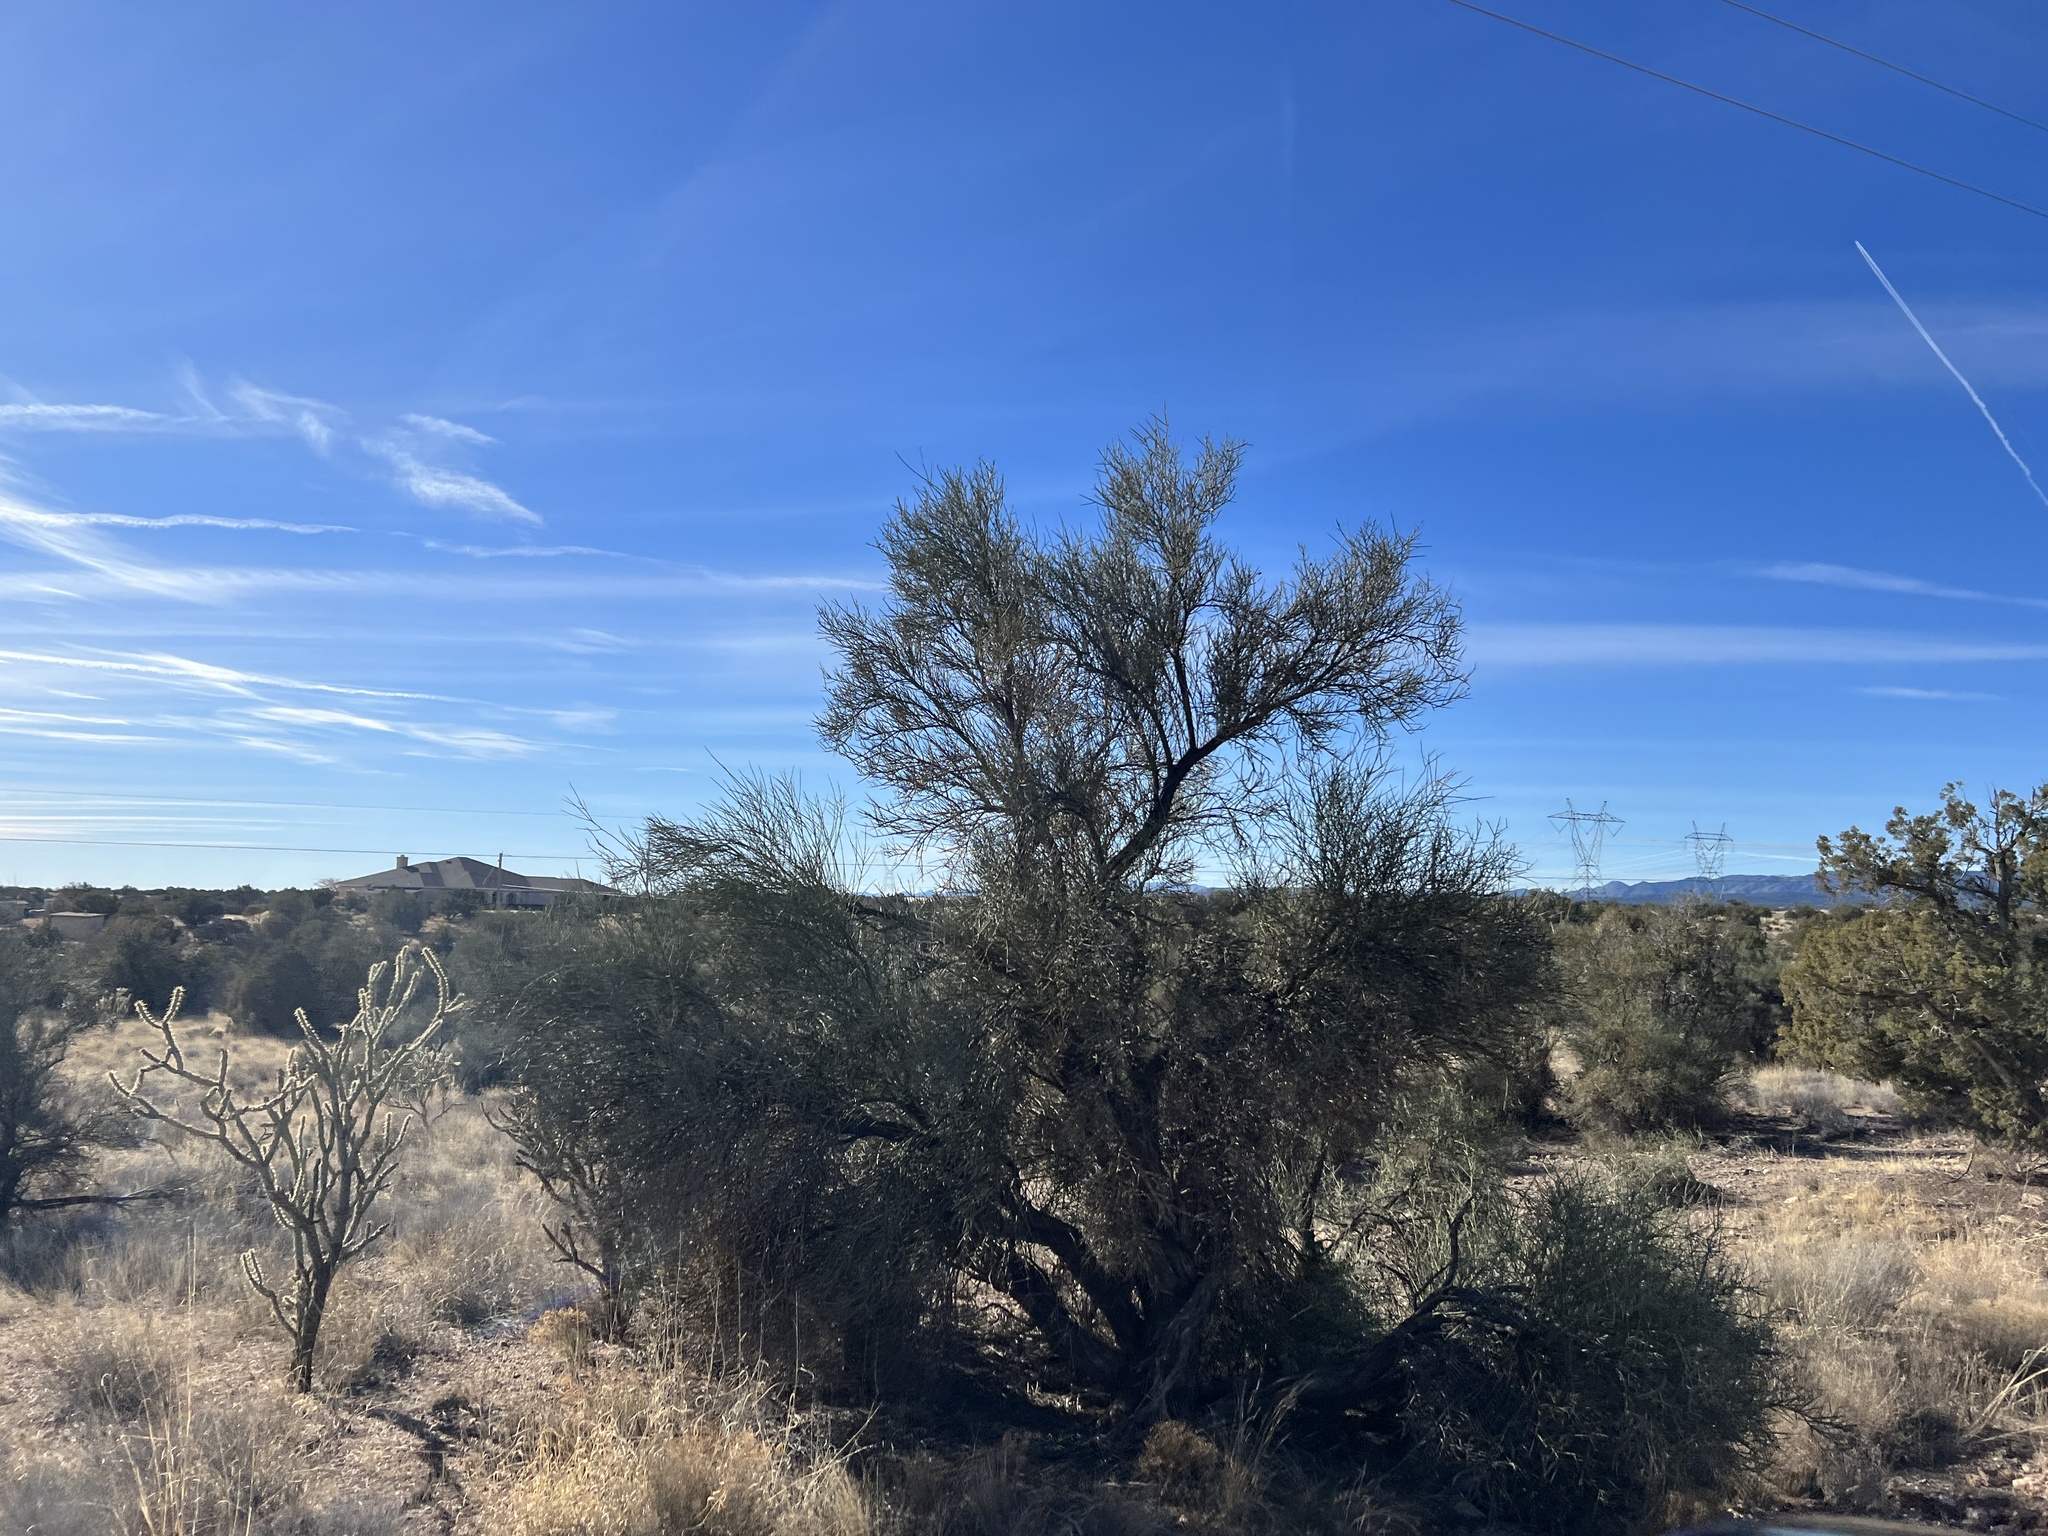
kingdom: Plantae
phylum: Tracheophyta
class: Magnoliopsida
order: Celastrales
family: Celastraceae
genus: Canotia
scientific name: Canotia holacantha
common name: Crucifixion thorns
